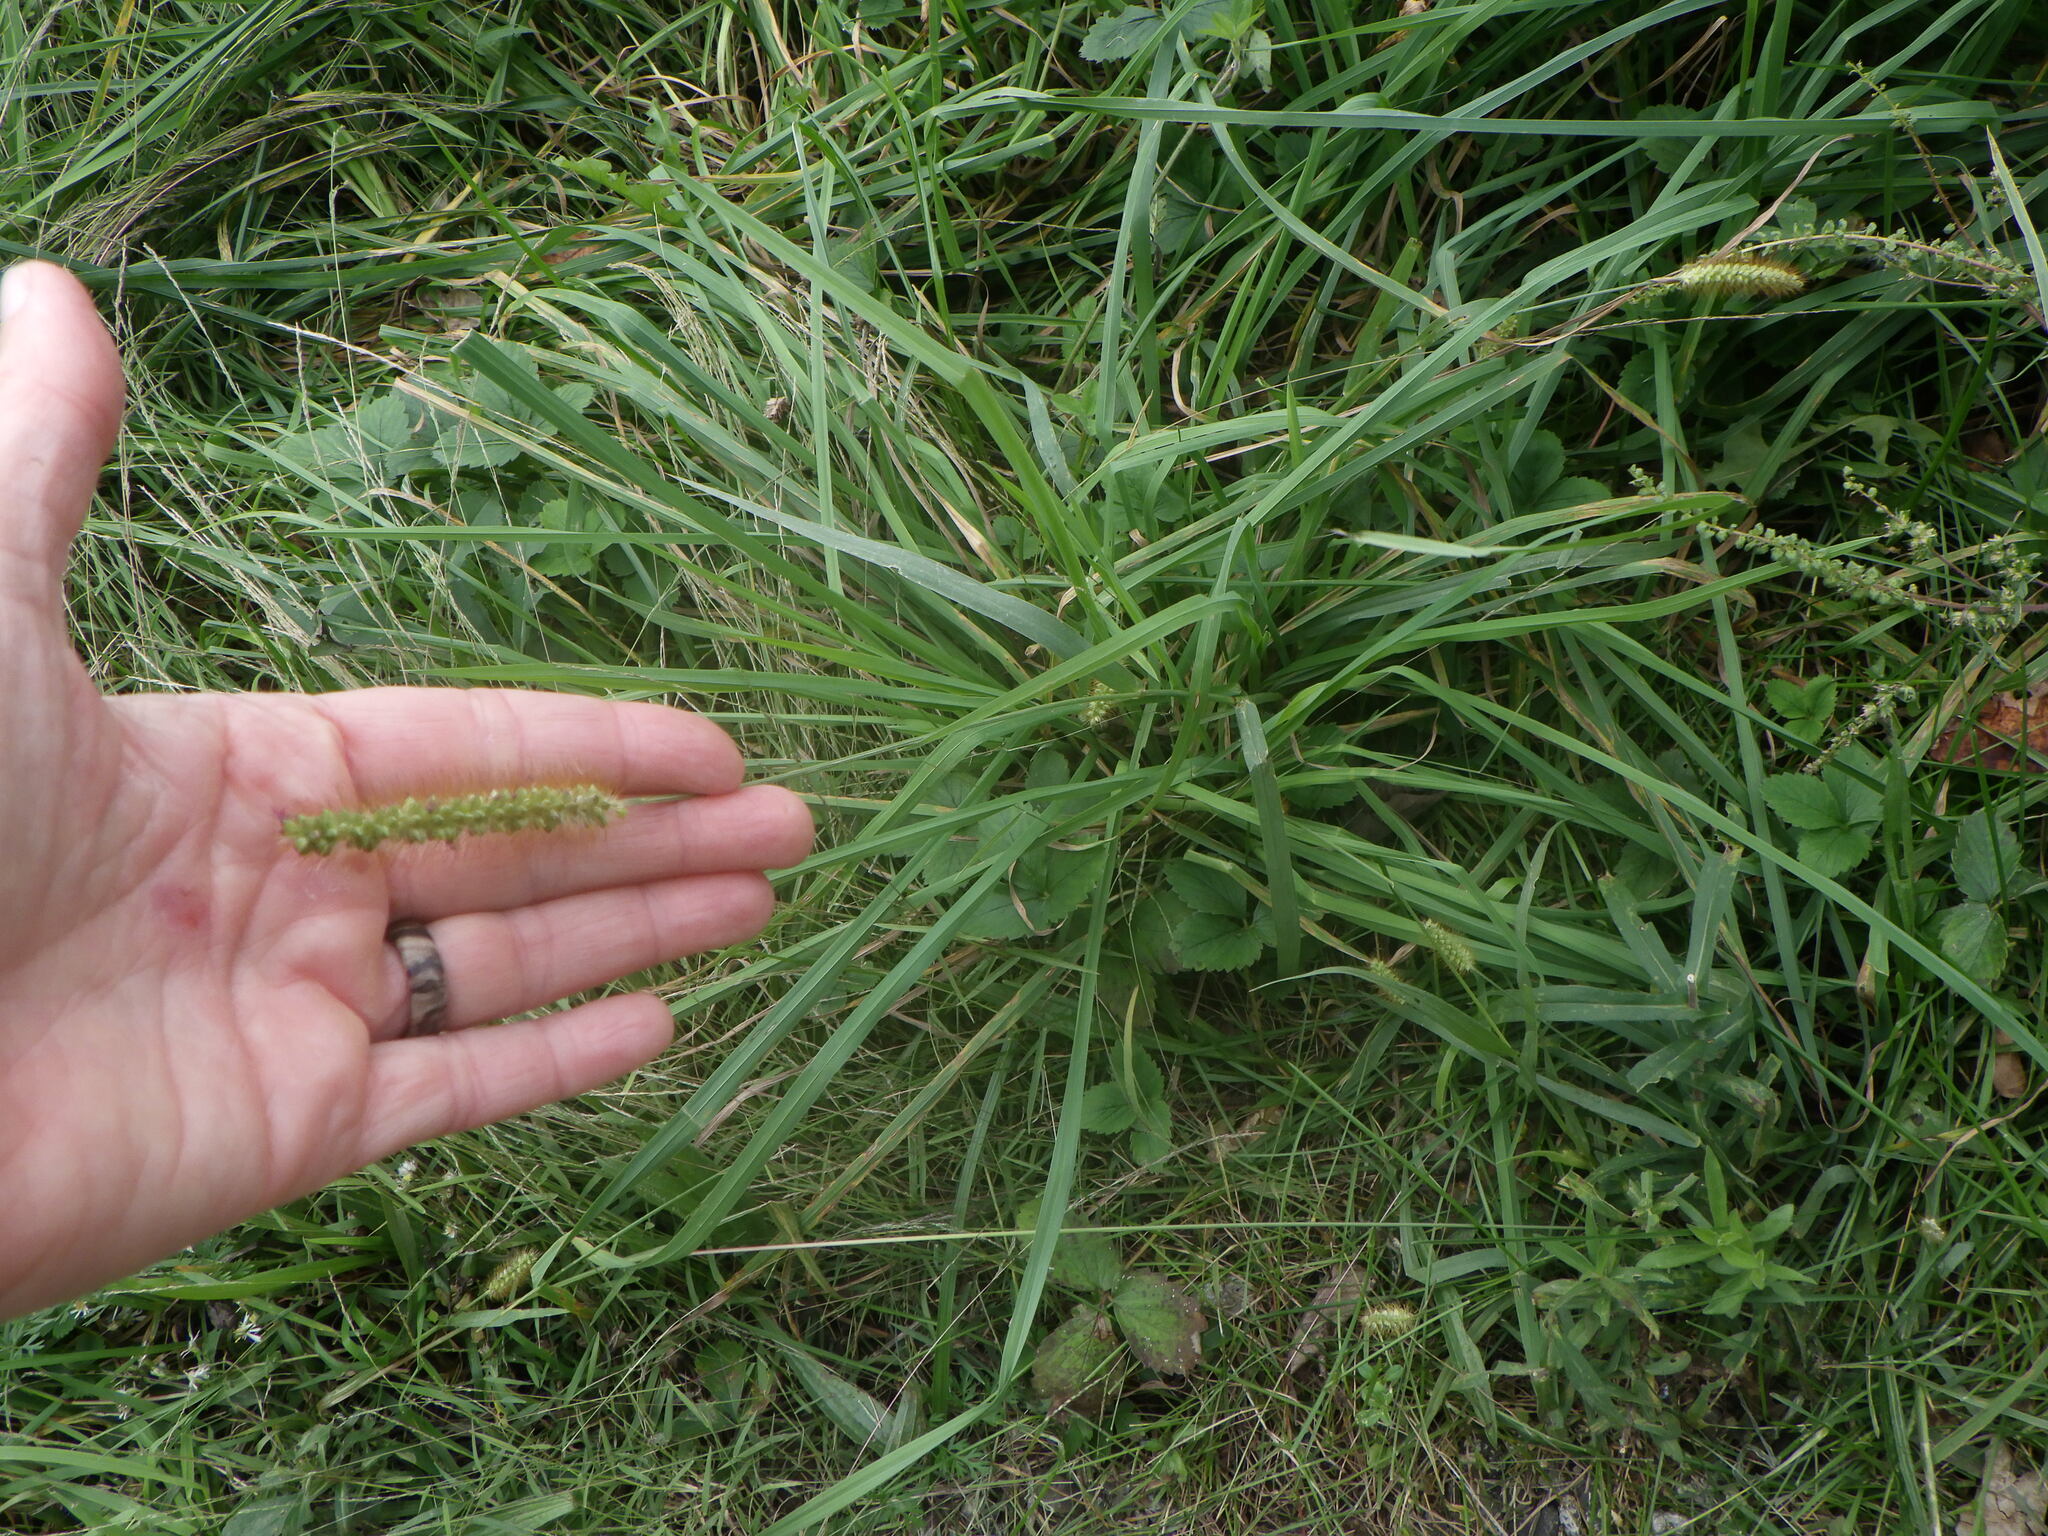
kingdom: Plantae
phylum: Tracheophyta
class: Liliopsida
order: Poales
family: Poaceae
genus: Setaria
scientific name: Setaria pumila
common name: Yellow bristle-grass
